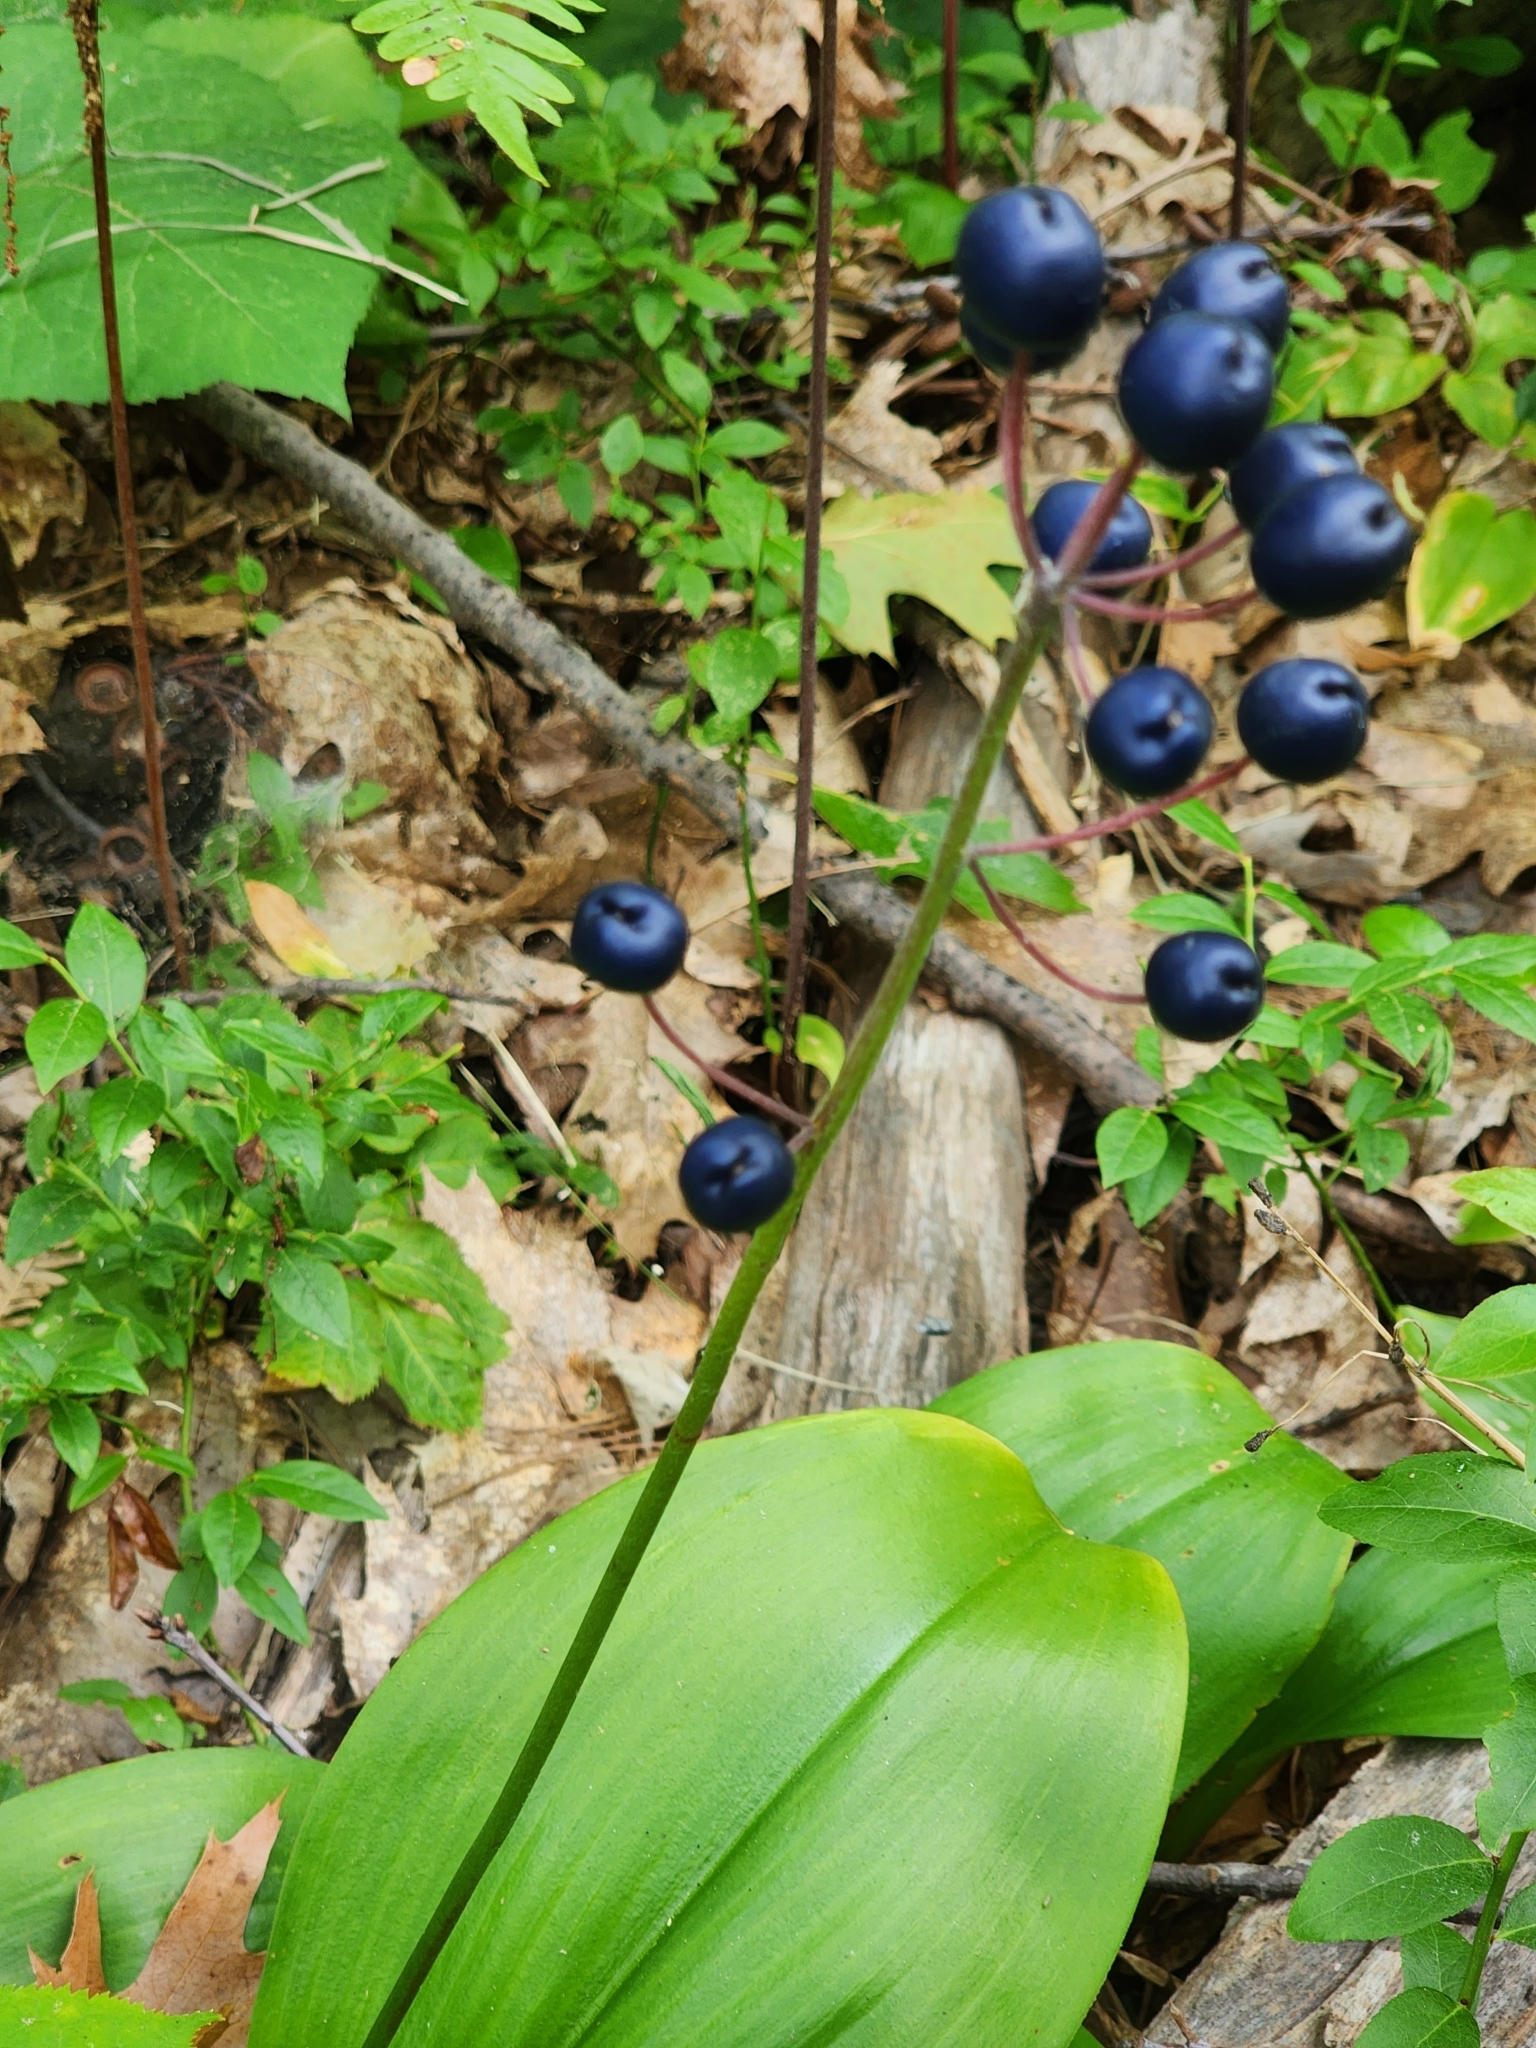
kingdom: Plantae
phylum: Tracheophyta
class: Liliopsida
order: Liliales
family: Liliaceae
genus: Clintonia
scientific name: Clintonia borealis
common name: Yellow clintonia
